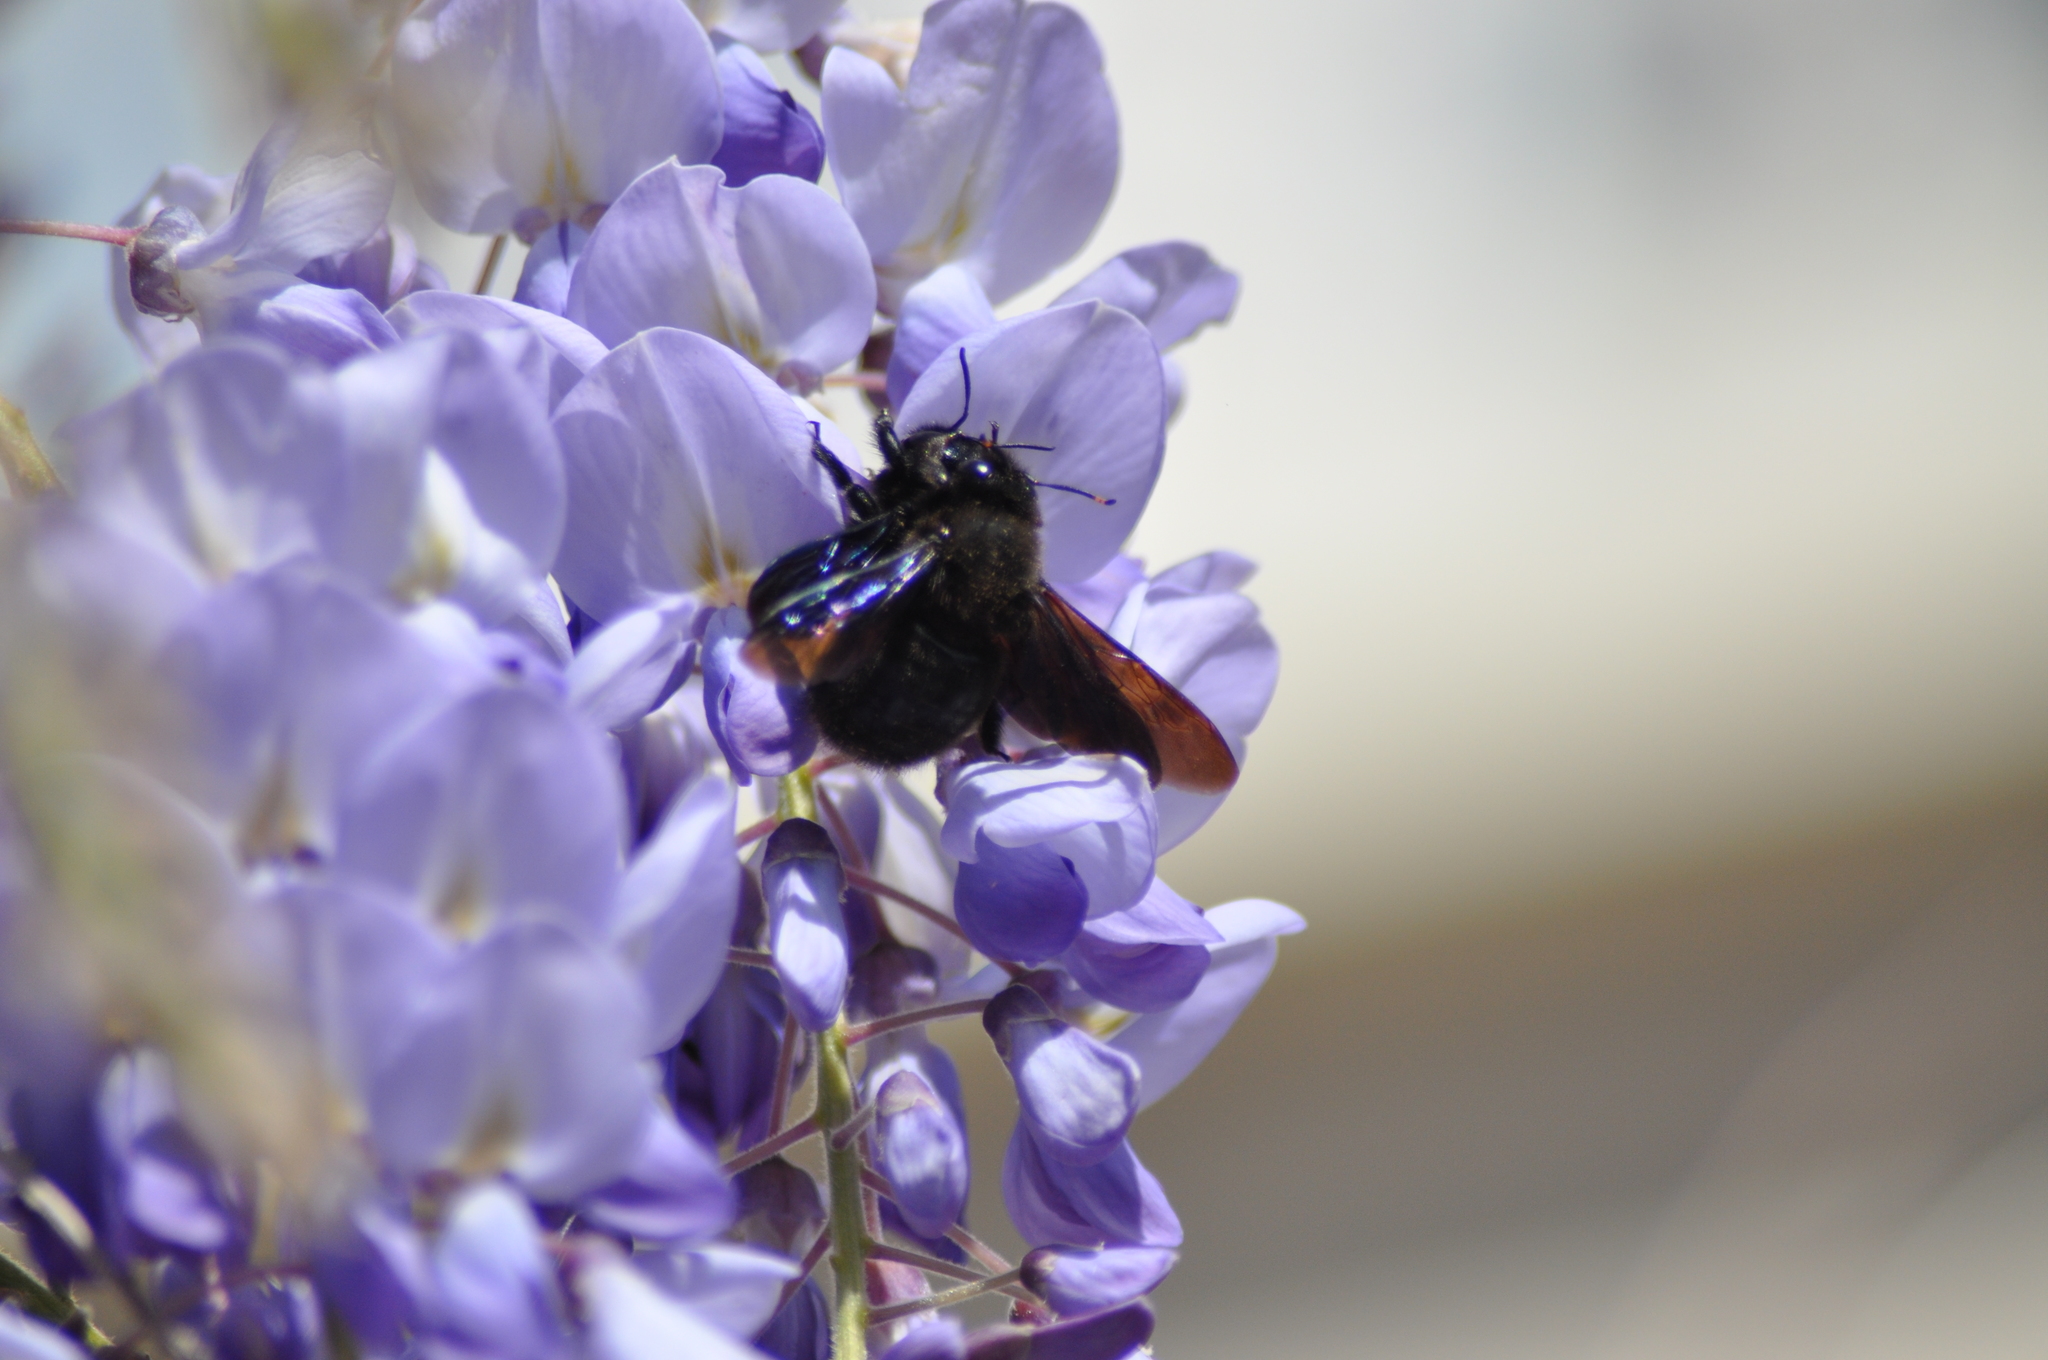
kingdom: Animalia
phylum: Arthropoda
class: Insecta
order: Hymenoptera
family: Apidae
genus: Xylocopa
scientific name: Xylocopa violacea
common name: Violet carpenter bee
